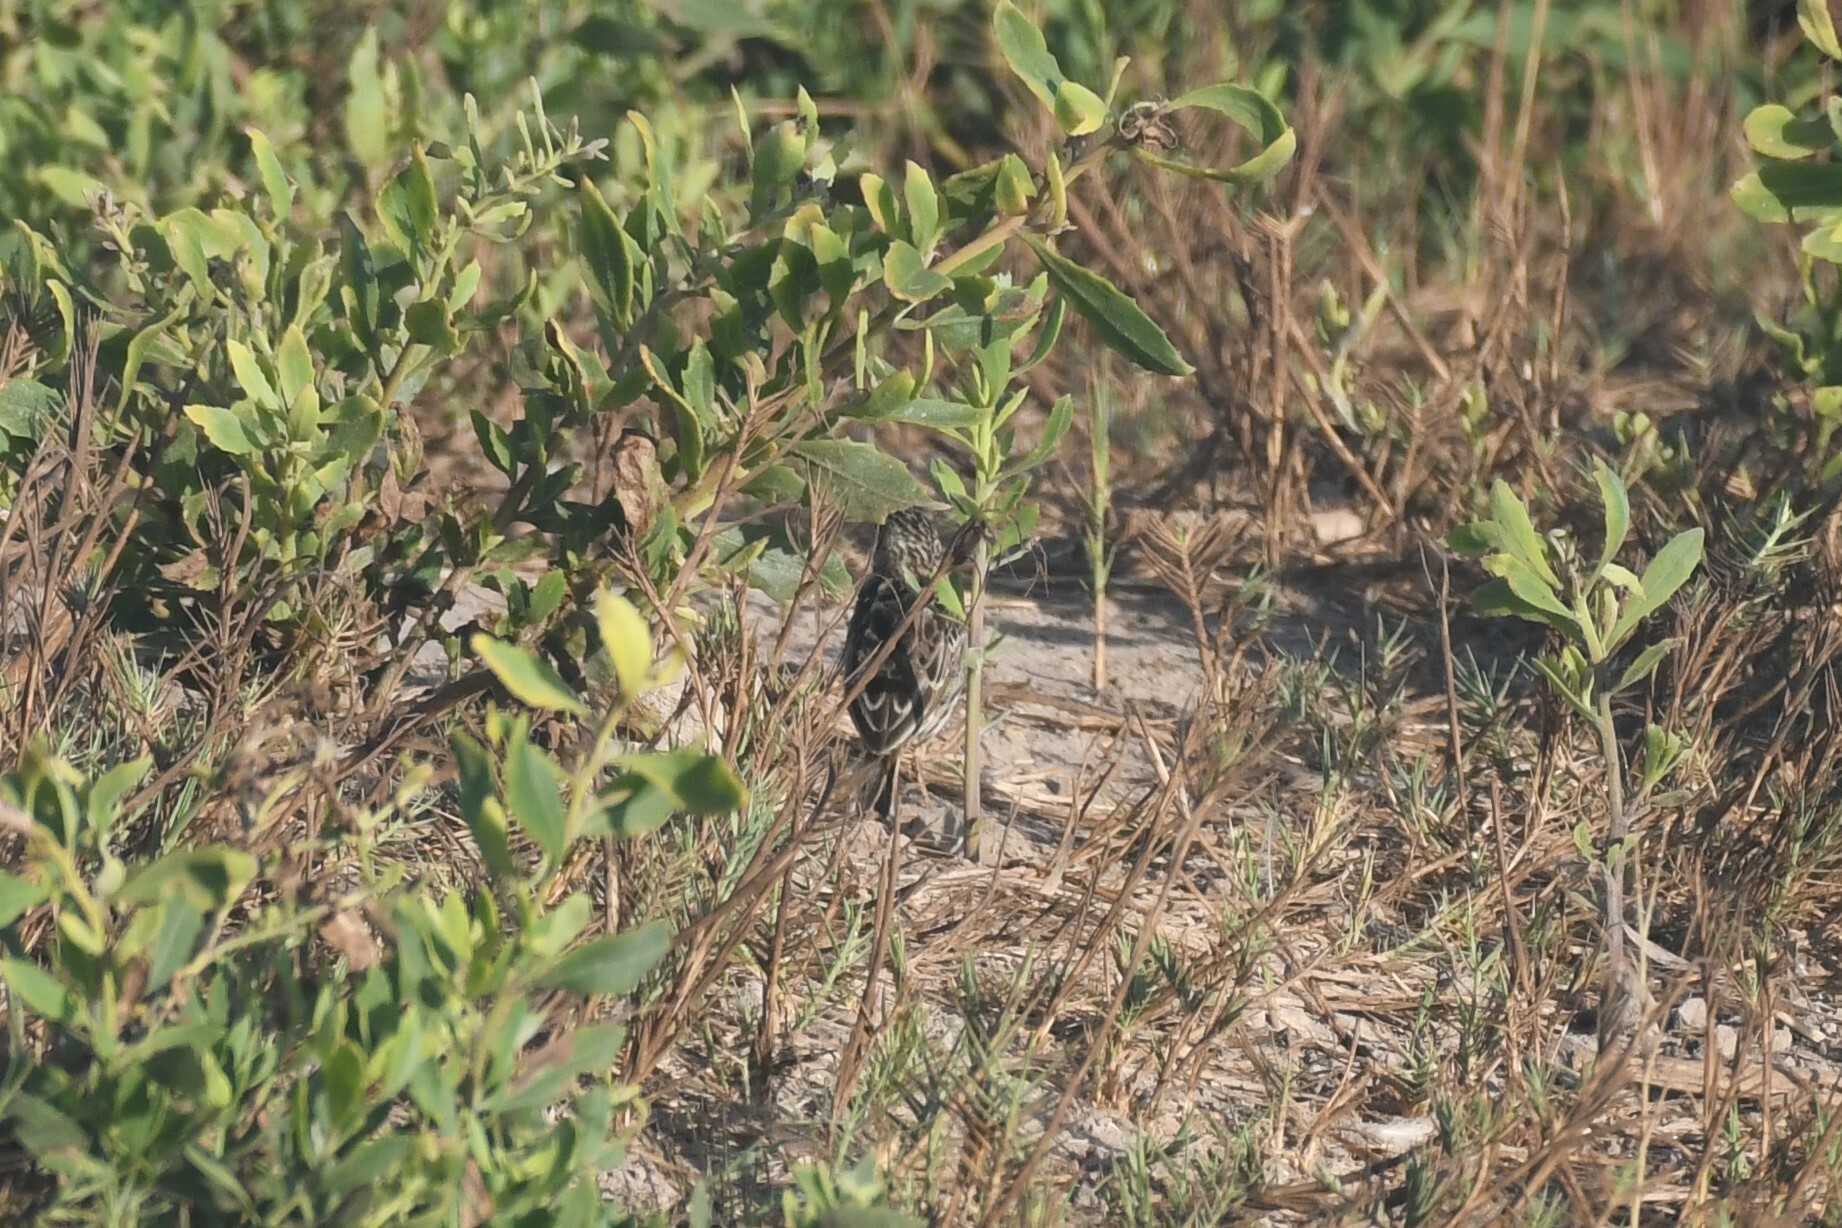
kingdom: Animalia
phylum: Chordata
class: Aves
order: Passeriformes
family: Motacillidae
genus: Anthus
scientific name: Anthus peruvianus
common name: Peruvian pipit
